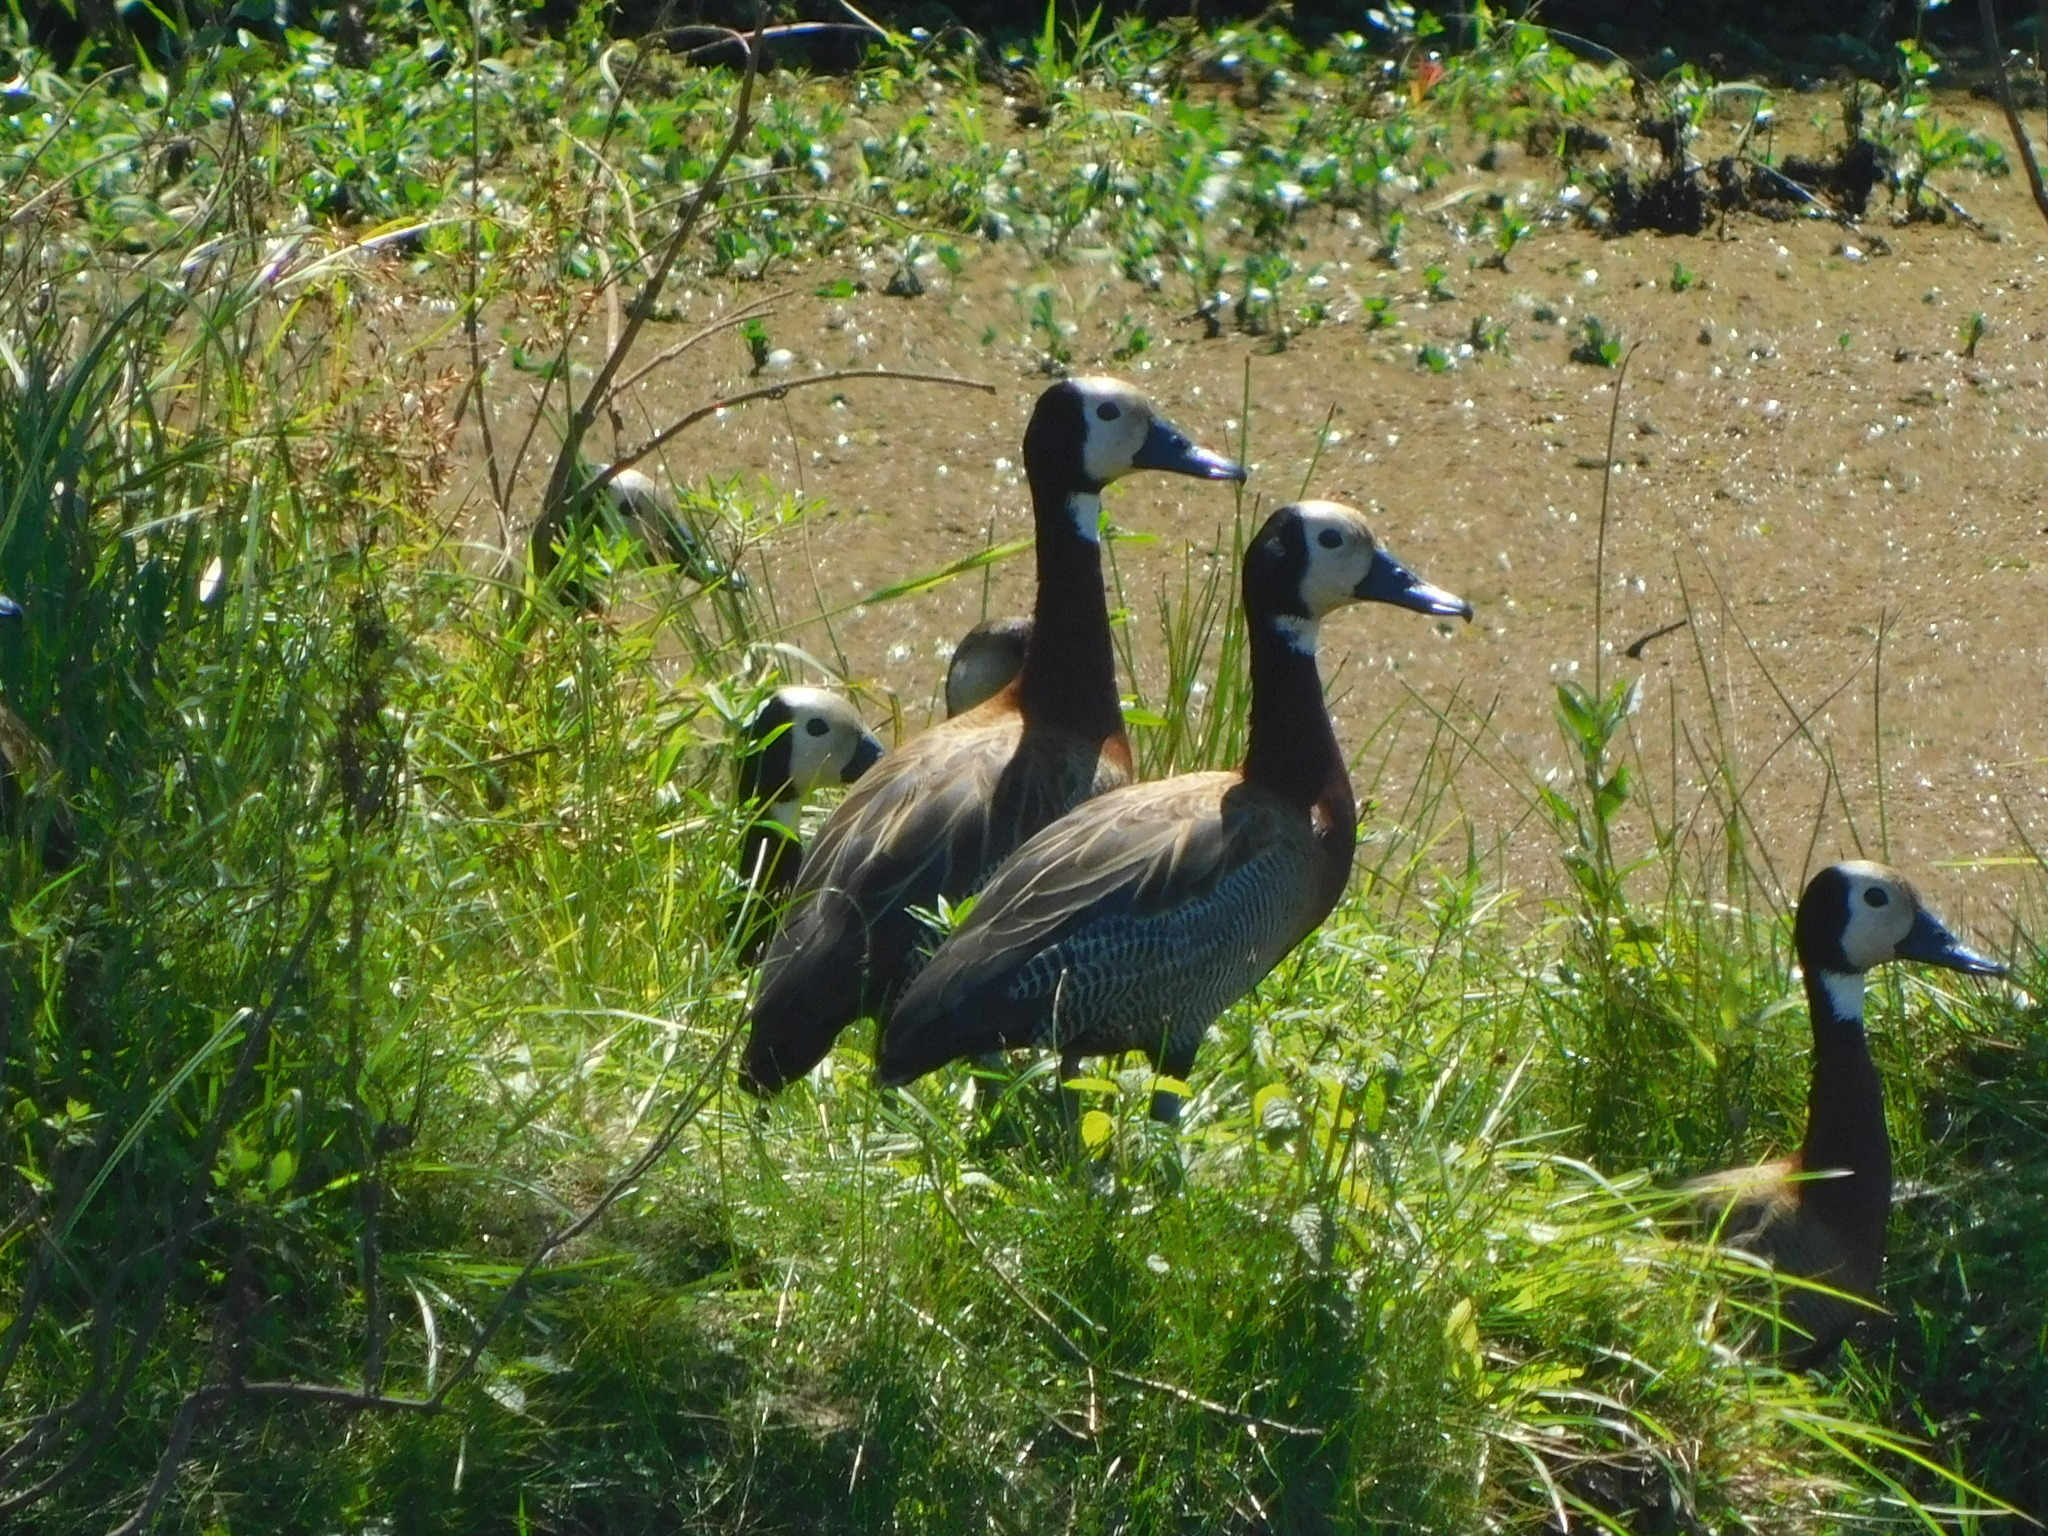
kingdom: Animalia
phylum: Chordata
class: Aves
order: Anseriformes
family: Anatidae
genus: Dendrocygna
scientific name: Dendrocygna viduata
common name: White-faced whistling duck
